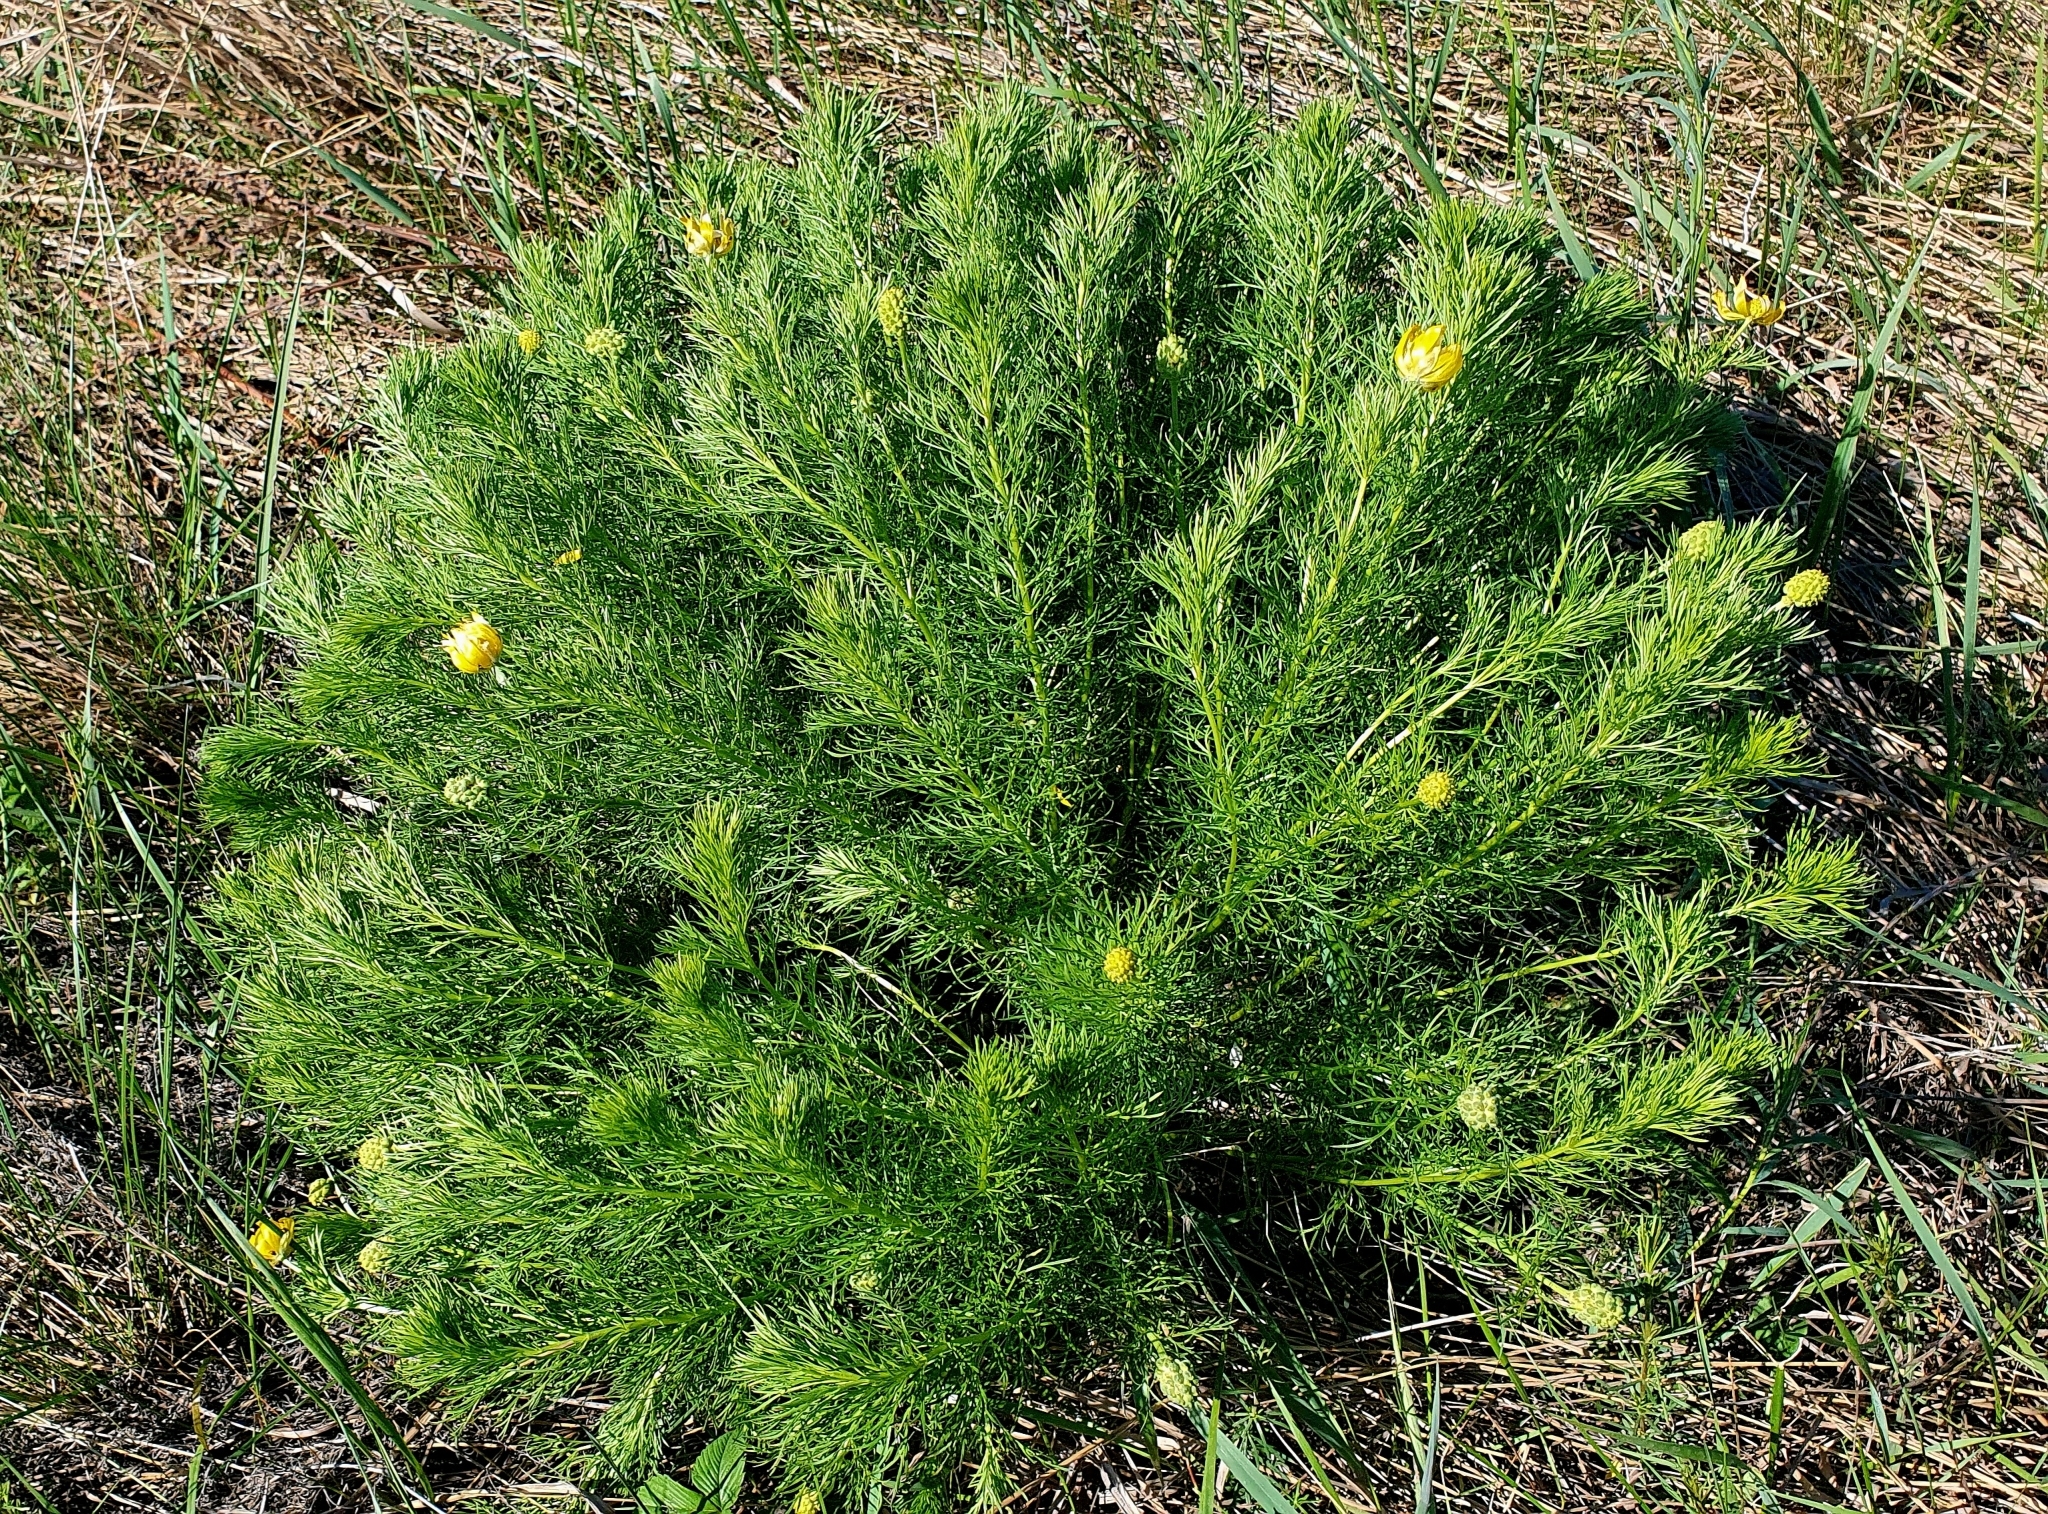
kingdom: Plantae
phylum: Tracheophyta
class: Magnoliopsida
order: Ranunculales
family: Ranunculaceae
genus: Adonis
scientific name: Adonis vernalis
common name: Yellow pheasants-eye
